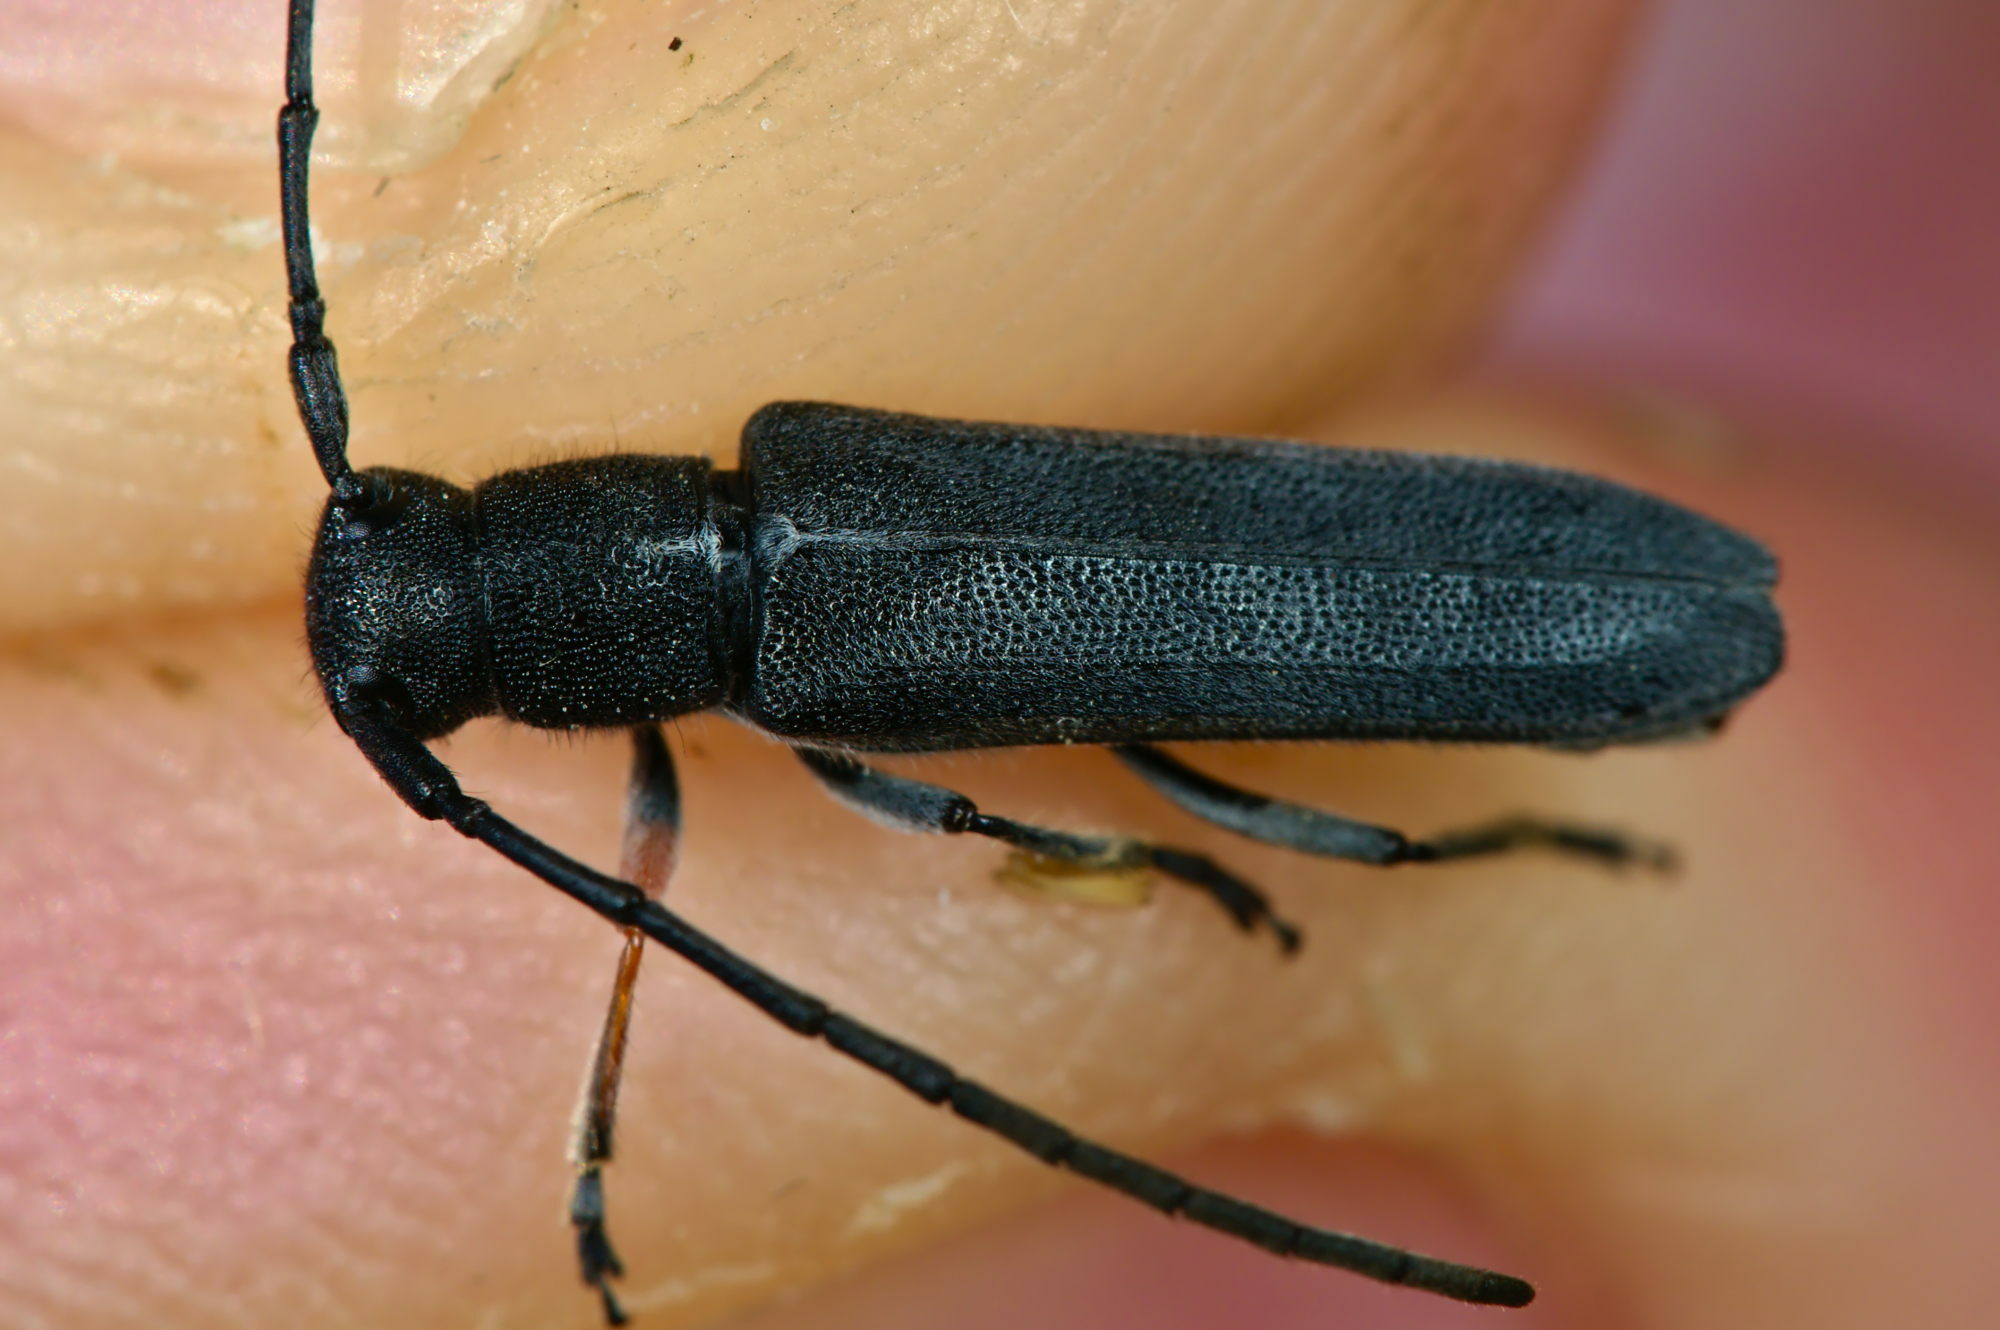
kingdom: Animalia
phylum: Arthropoda
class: Insecta
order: Coleoptera
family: Cerambycidae
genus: Phytoecia
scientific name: Phytoecia cylindrica
